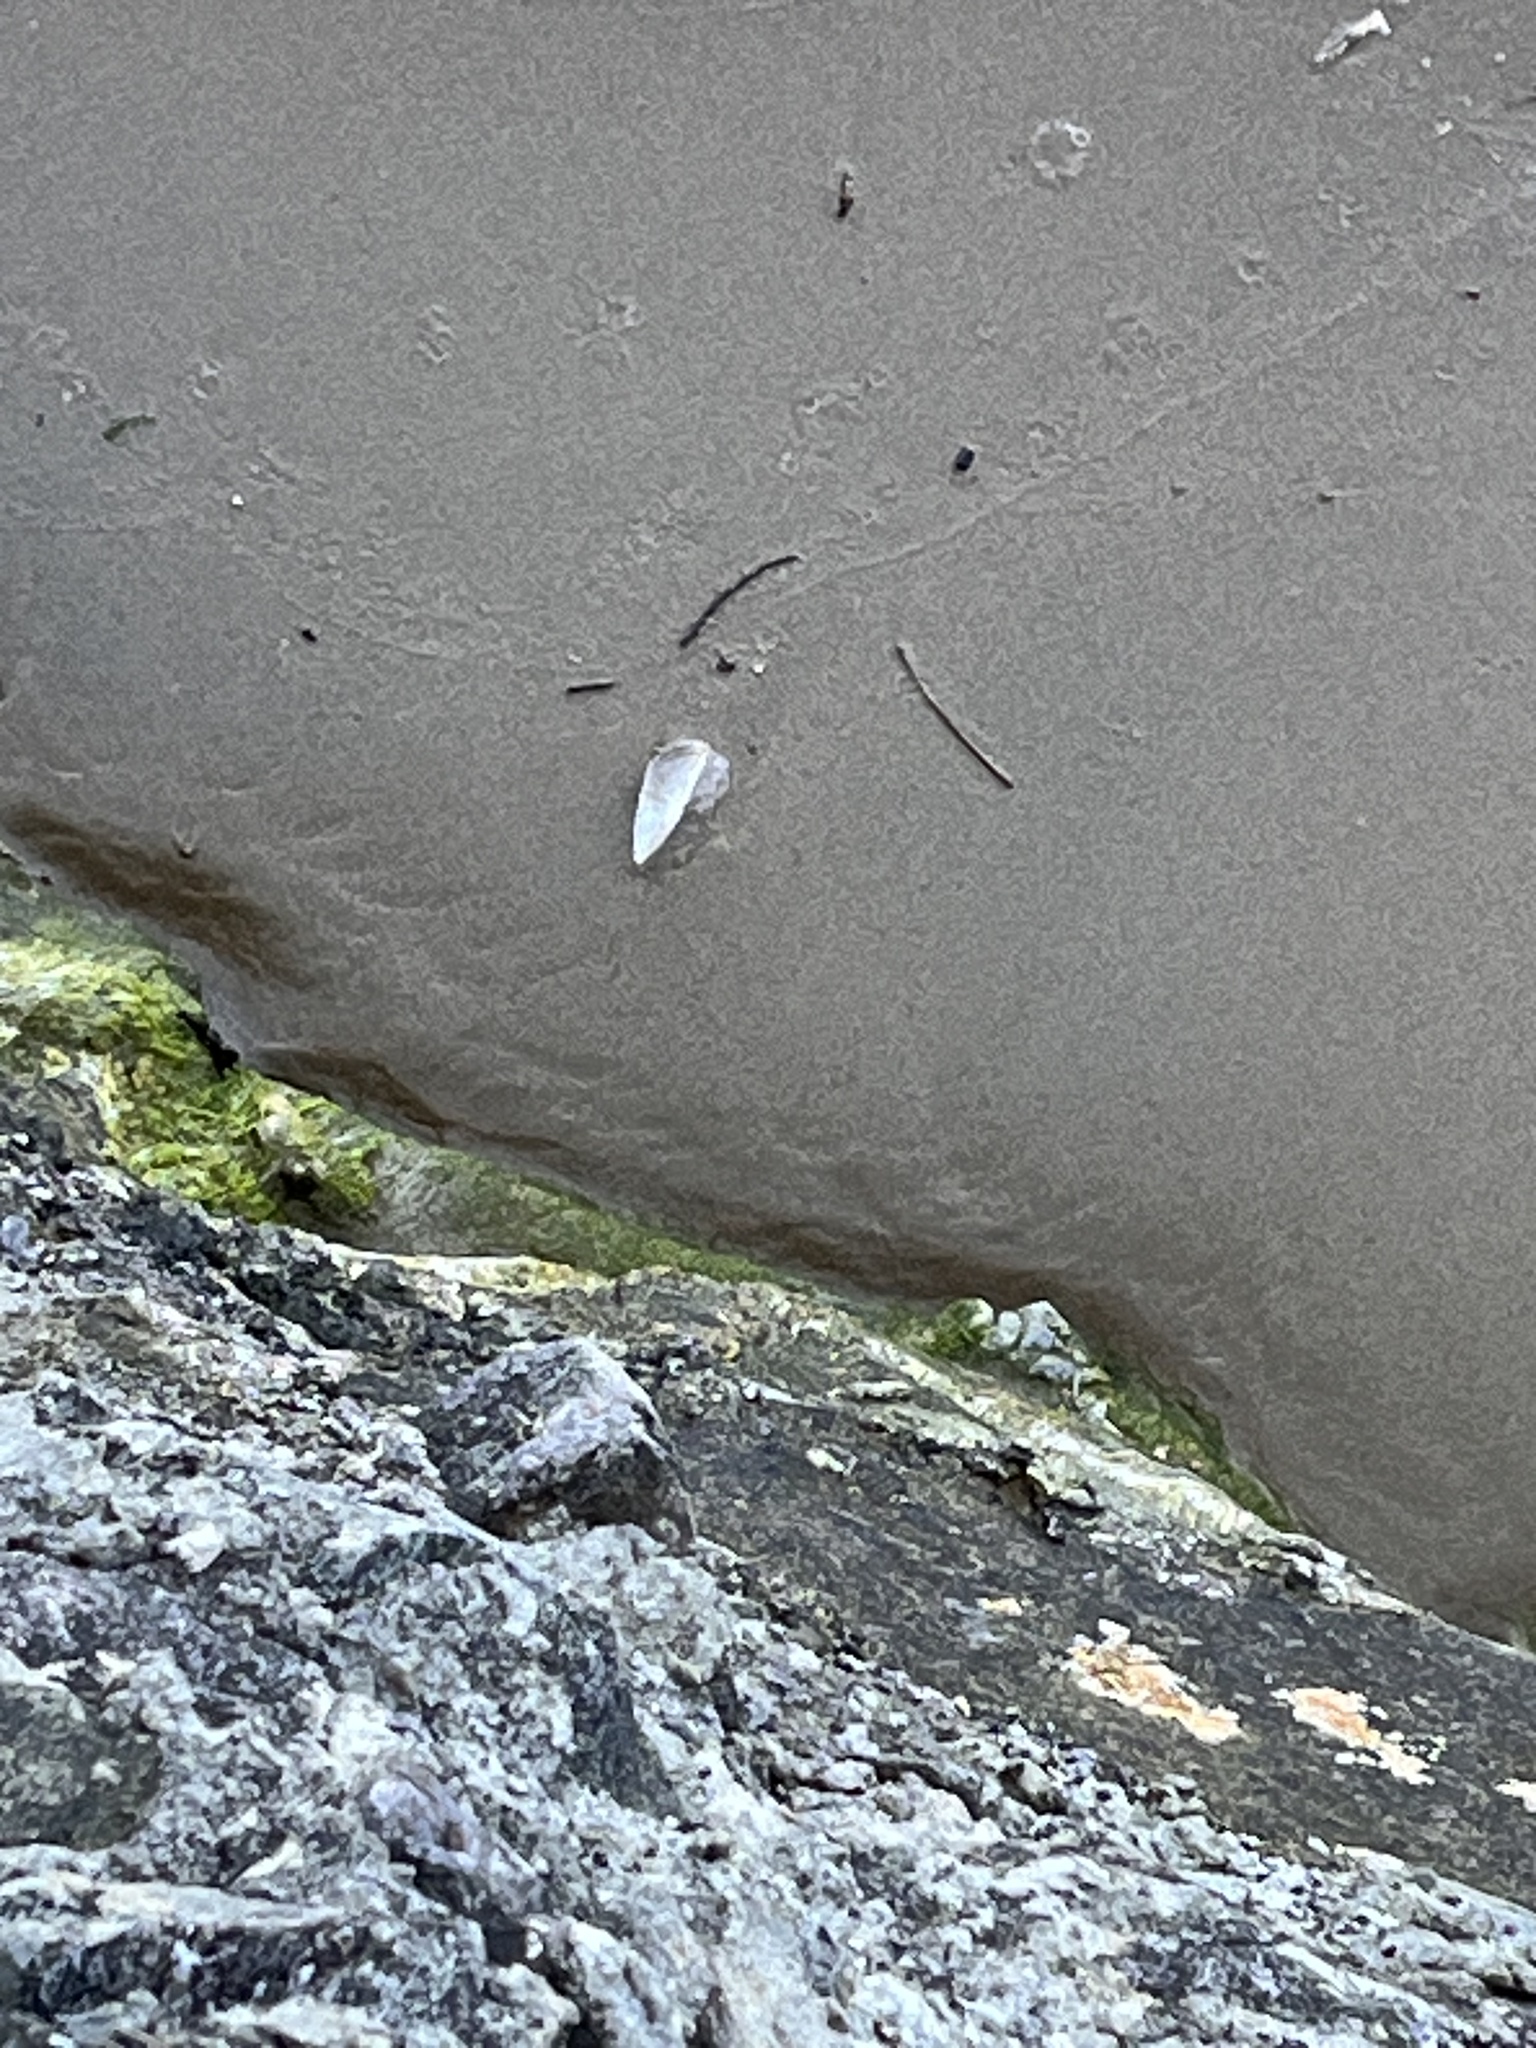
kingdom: Animalia
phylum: Cnidaria
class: Hydrozoa
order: Anthoathecata
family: Porpitidae
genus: Velella
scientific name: Velella velella
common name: By-the-wind-sailor
